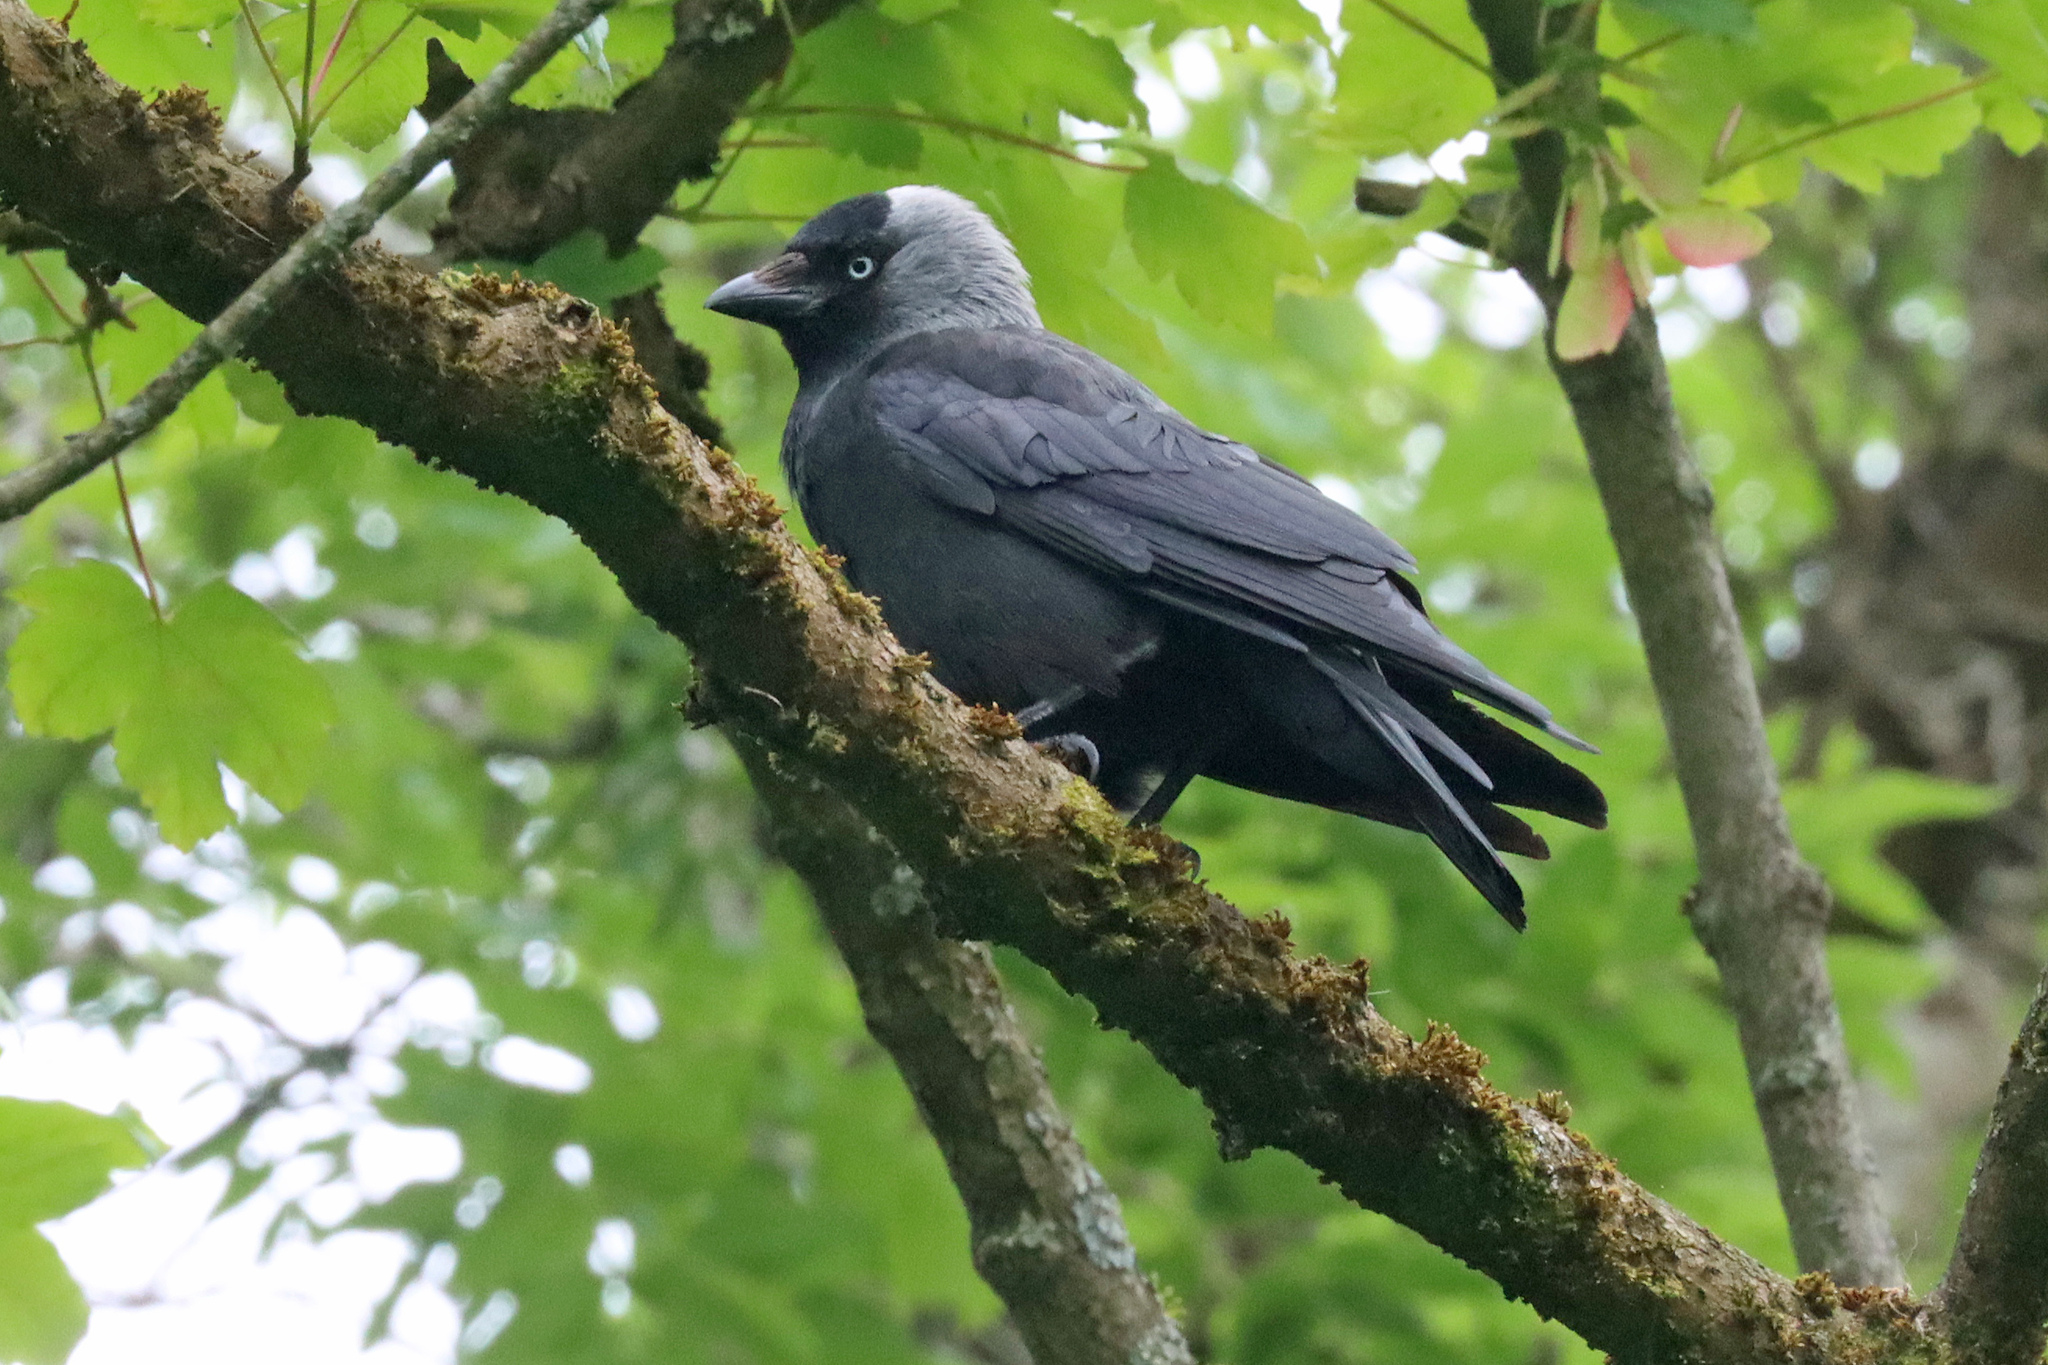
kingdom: Animalia
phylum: Chordata
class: Aves
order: Passeriformes
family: Corvidae
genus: Coloeus
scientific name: Coloeus monedula
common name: Western jackdaw
